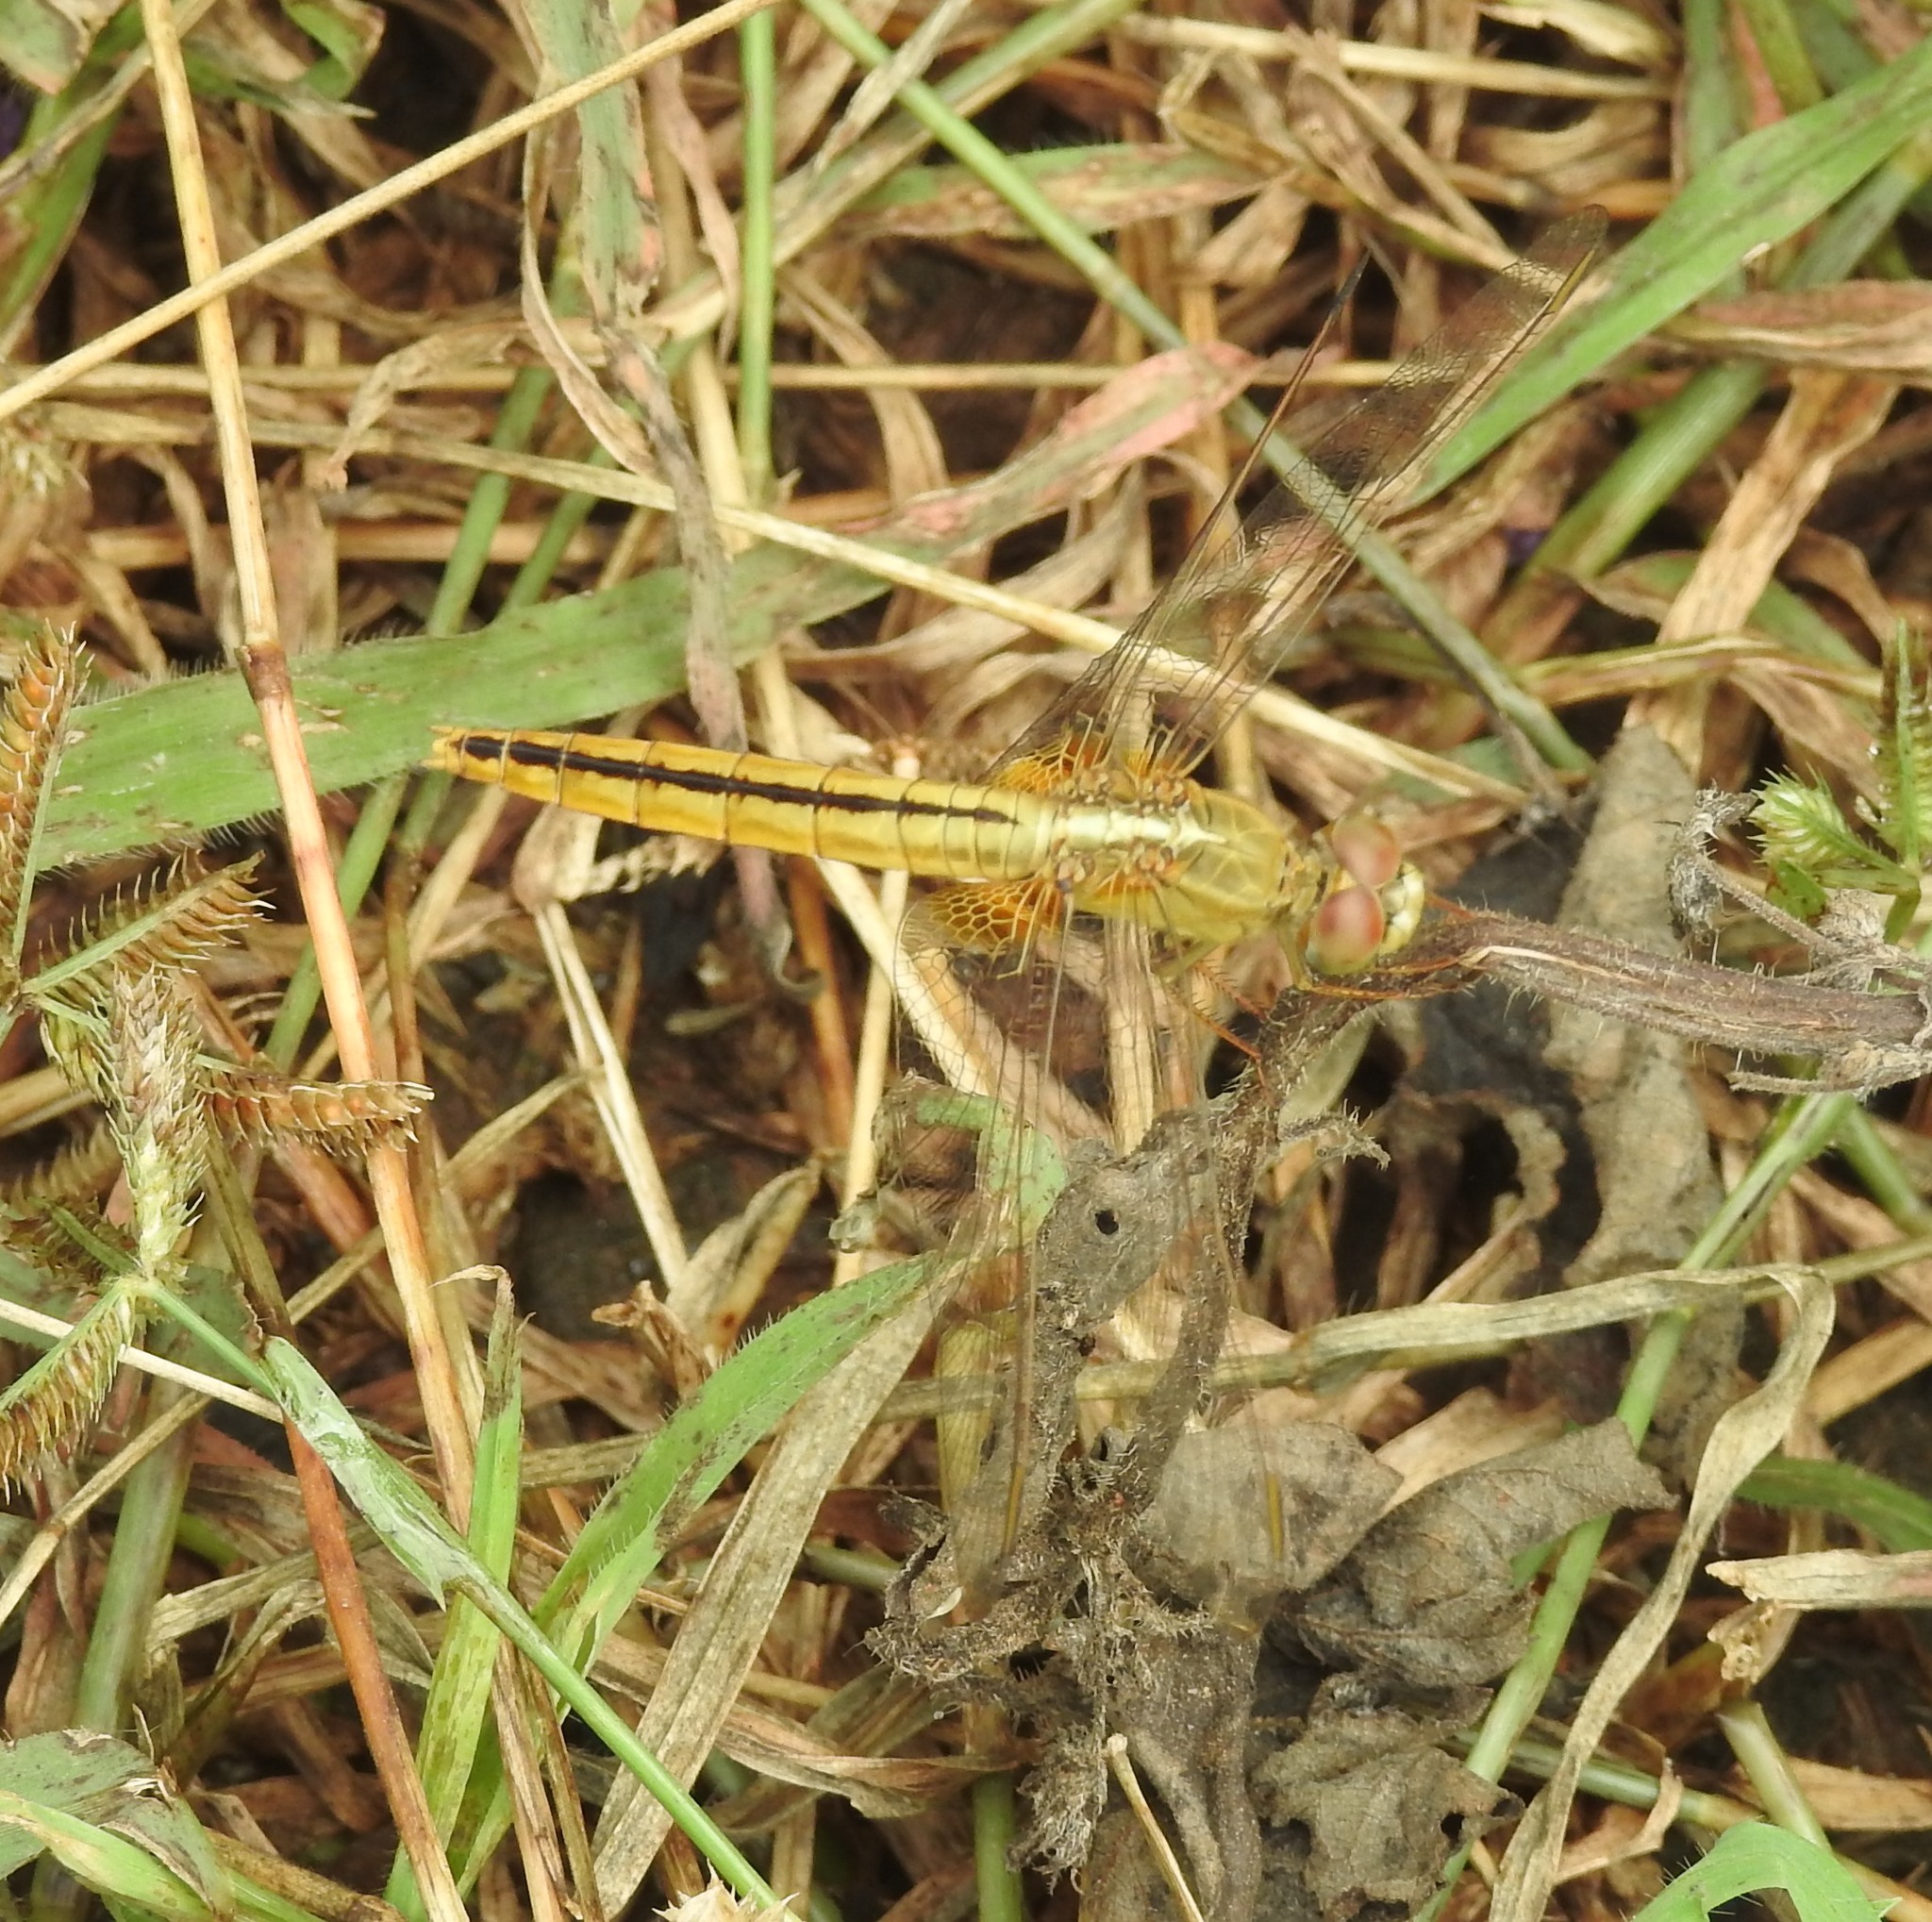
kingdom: Animalia
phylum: Arthropoda
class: Insecta
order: Odonata
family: Libellulidae
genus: Crocothemis
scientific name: Crocothemis servilia
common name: Scarlet skimmer
